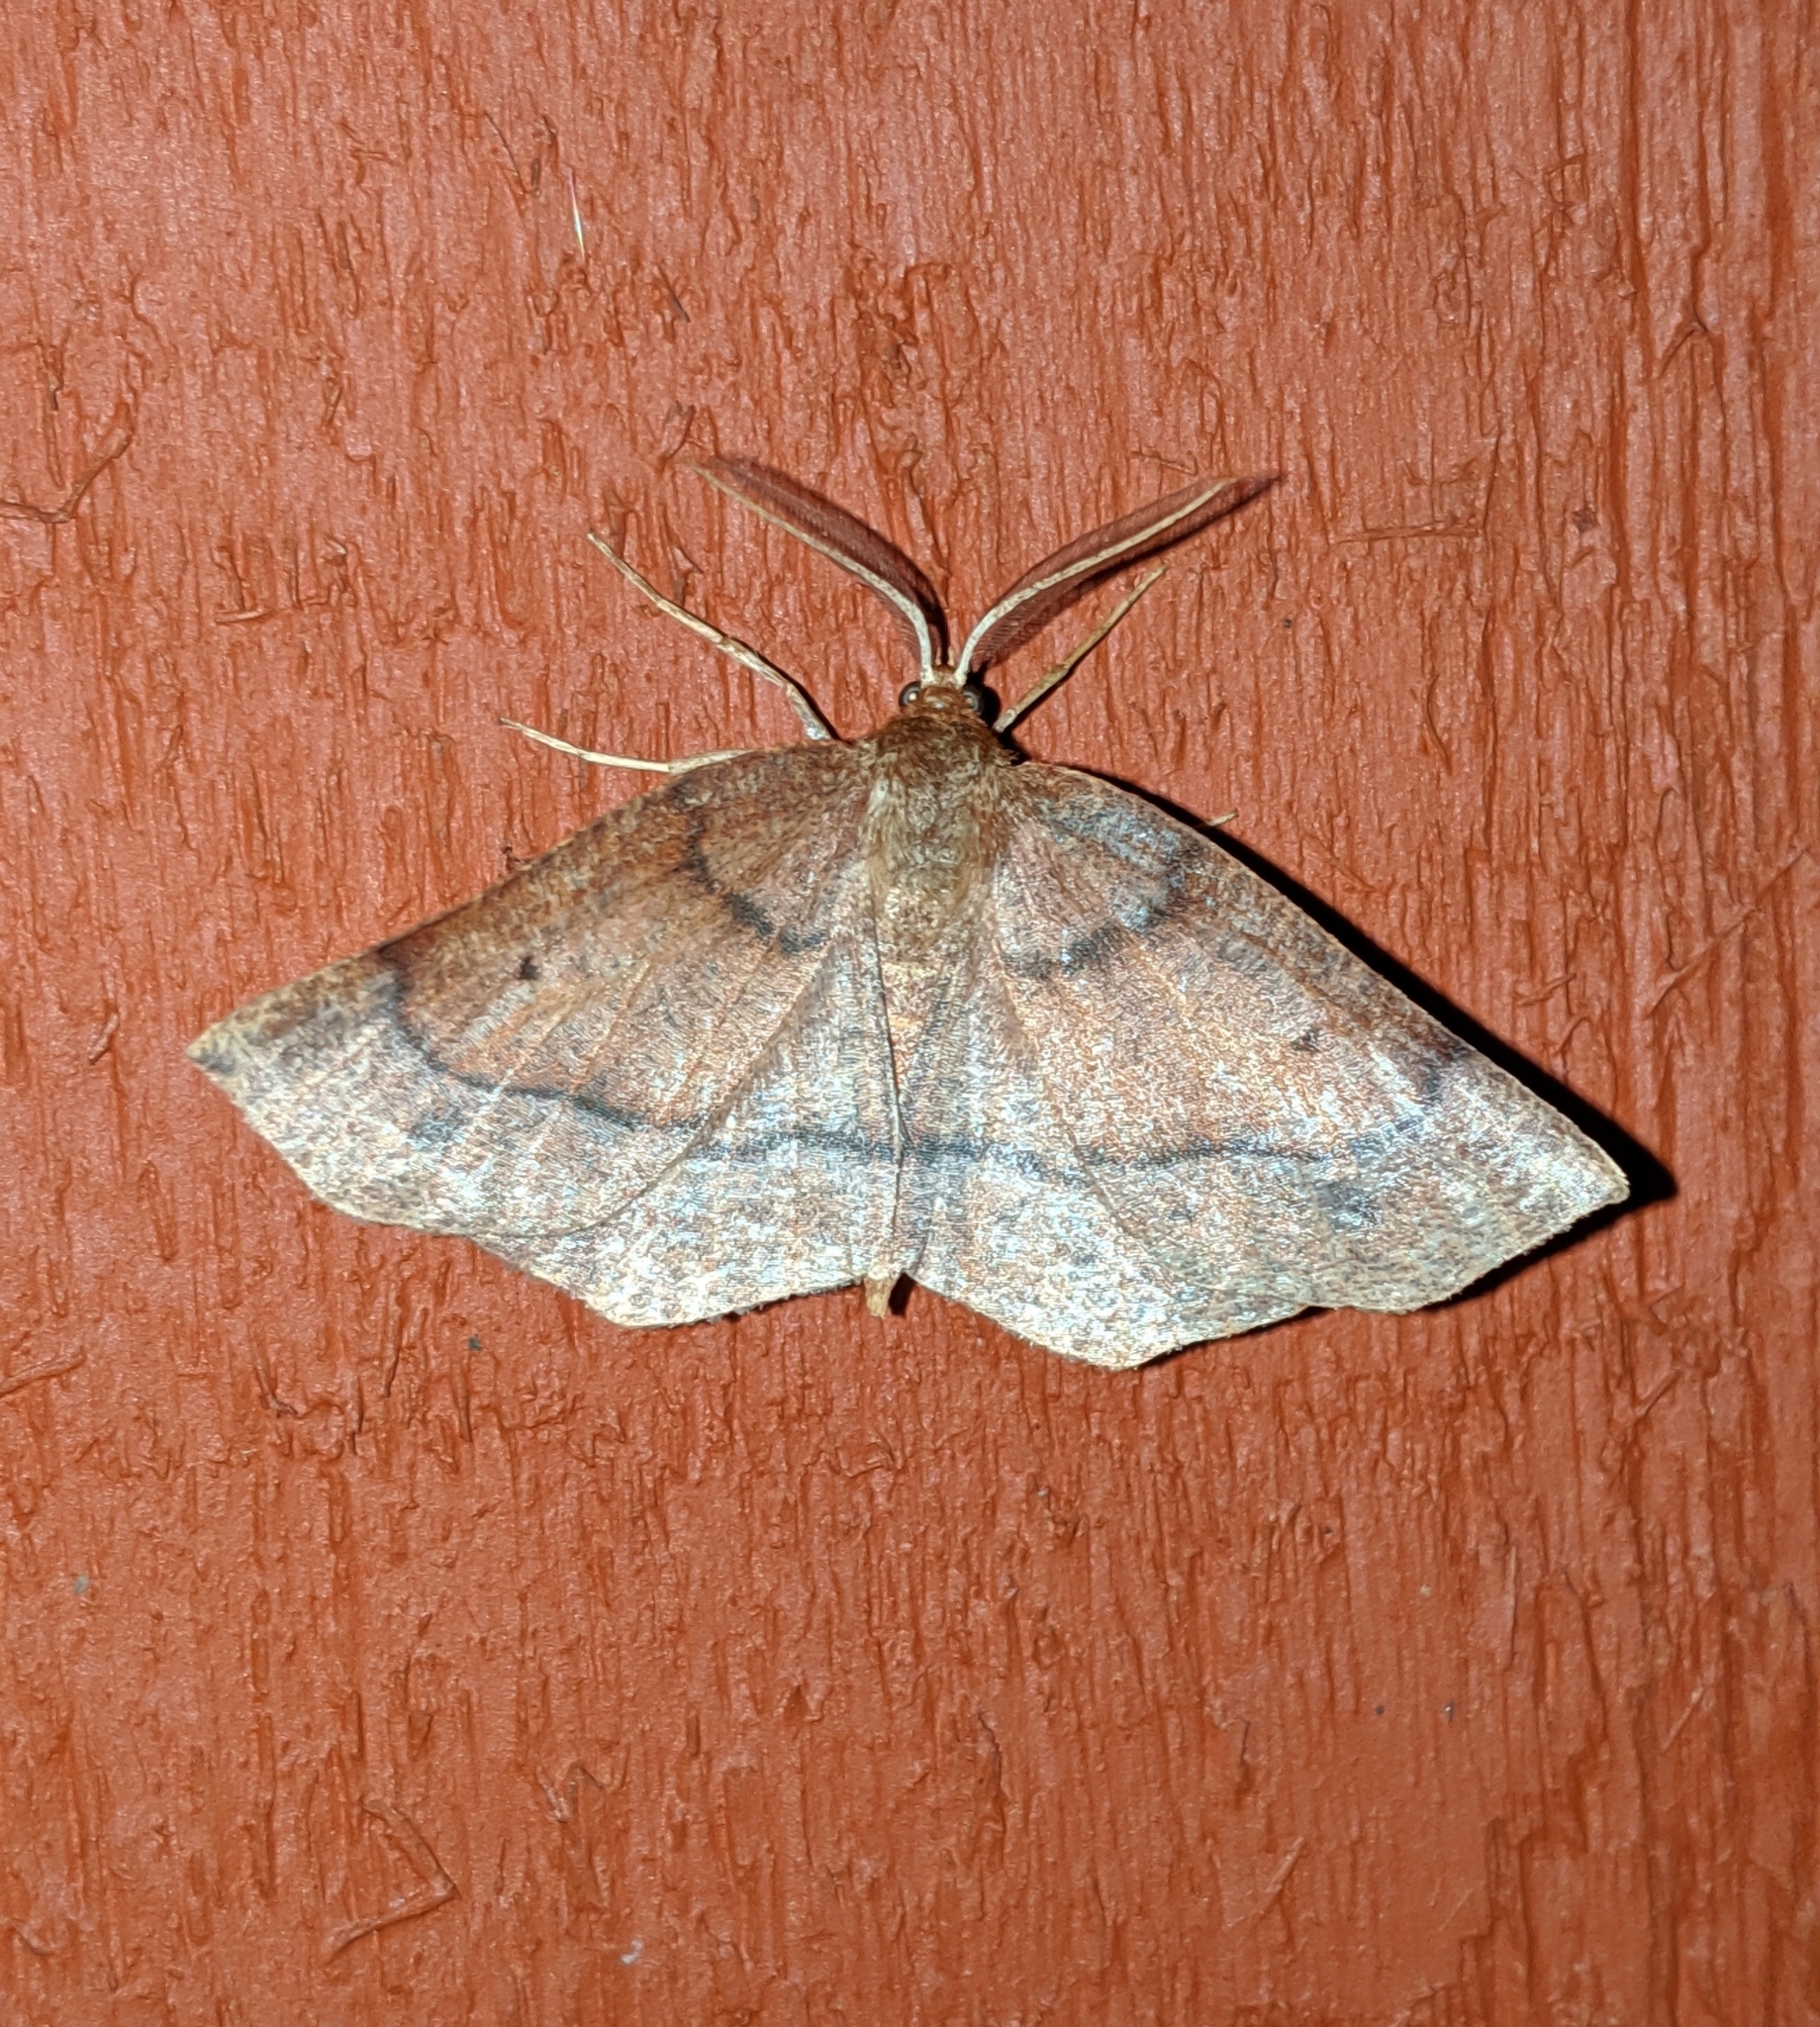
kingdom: Animalia
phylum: Arthropoda
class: Insecta
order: Lepidoptera
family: Geometridae
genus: Metarranthis
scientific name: Metarranthis duaria
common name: Ruddy metarranthis moth
